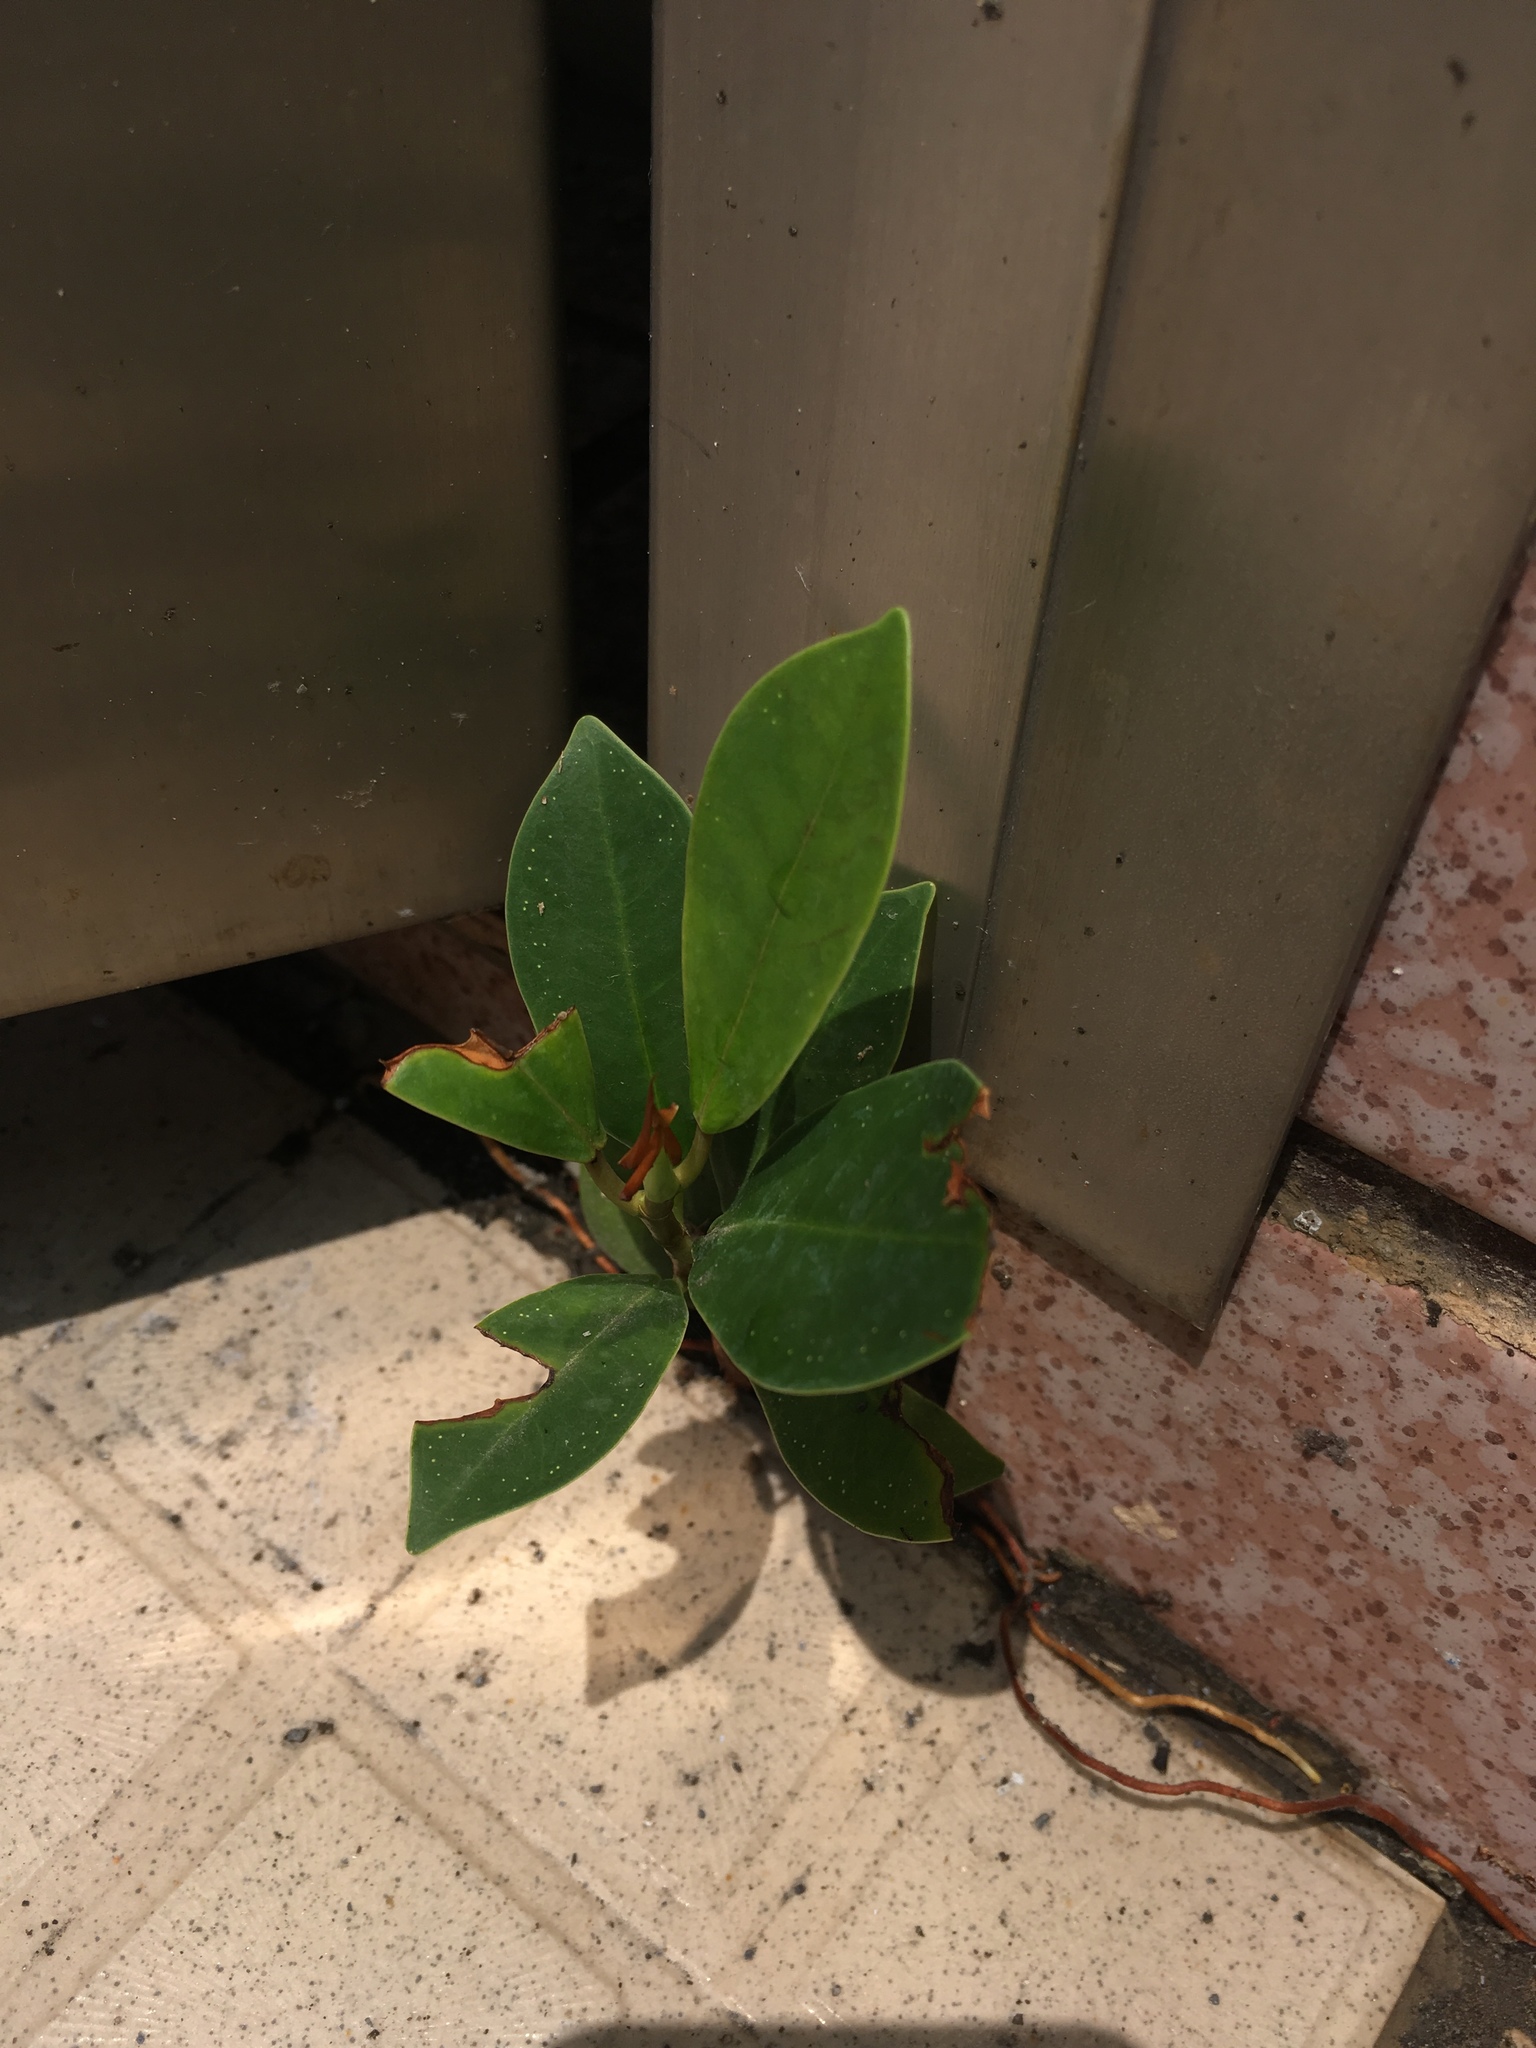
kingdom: Plantae
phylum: Tracheophyta
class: Magnoliopsida
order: Rosales
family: Moraceae
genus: Ficus
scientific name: Ficus microcarpa
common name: Chinese banyan
